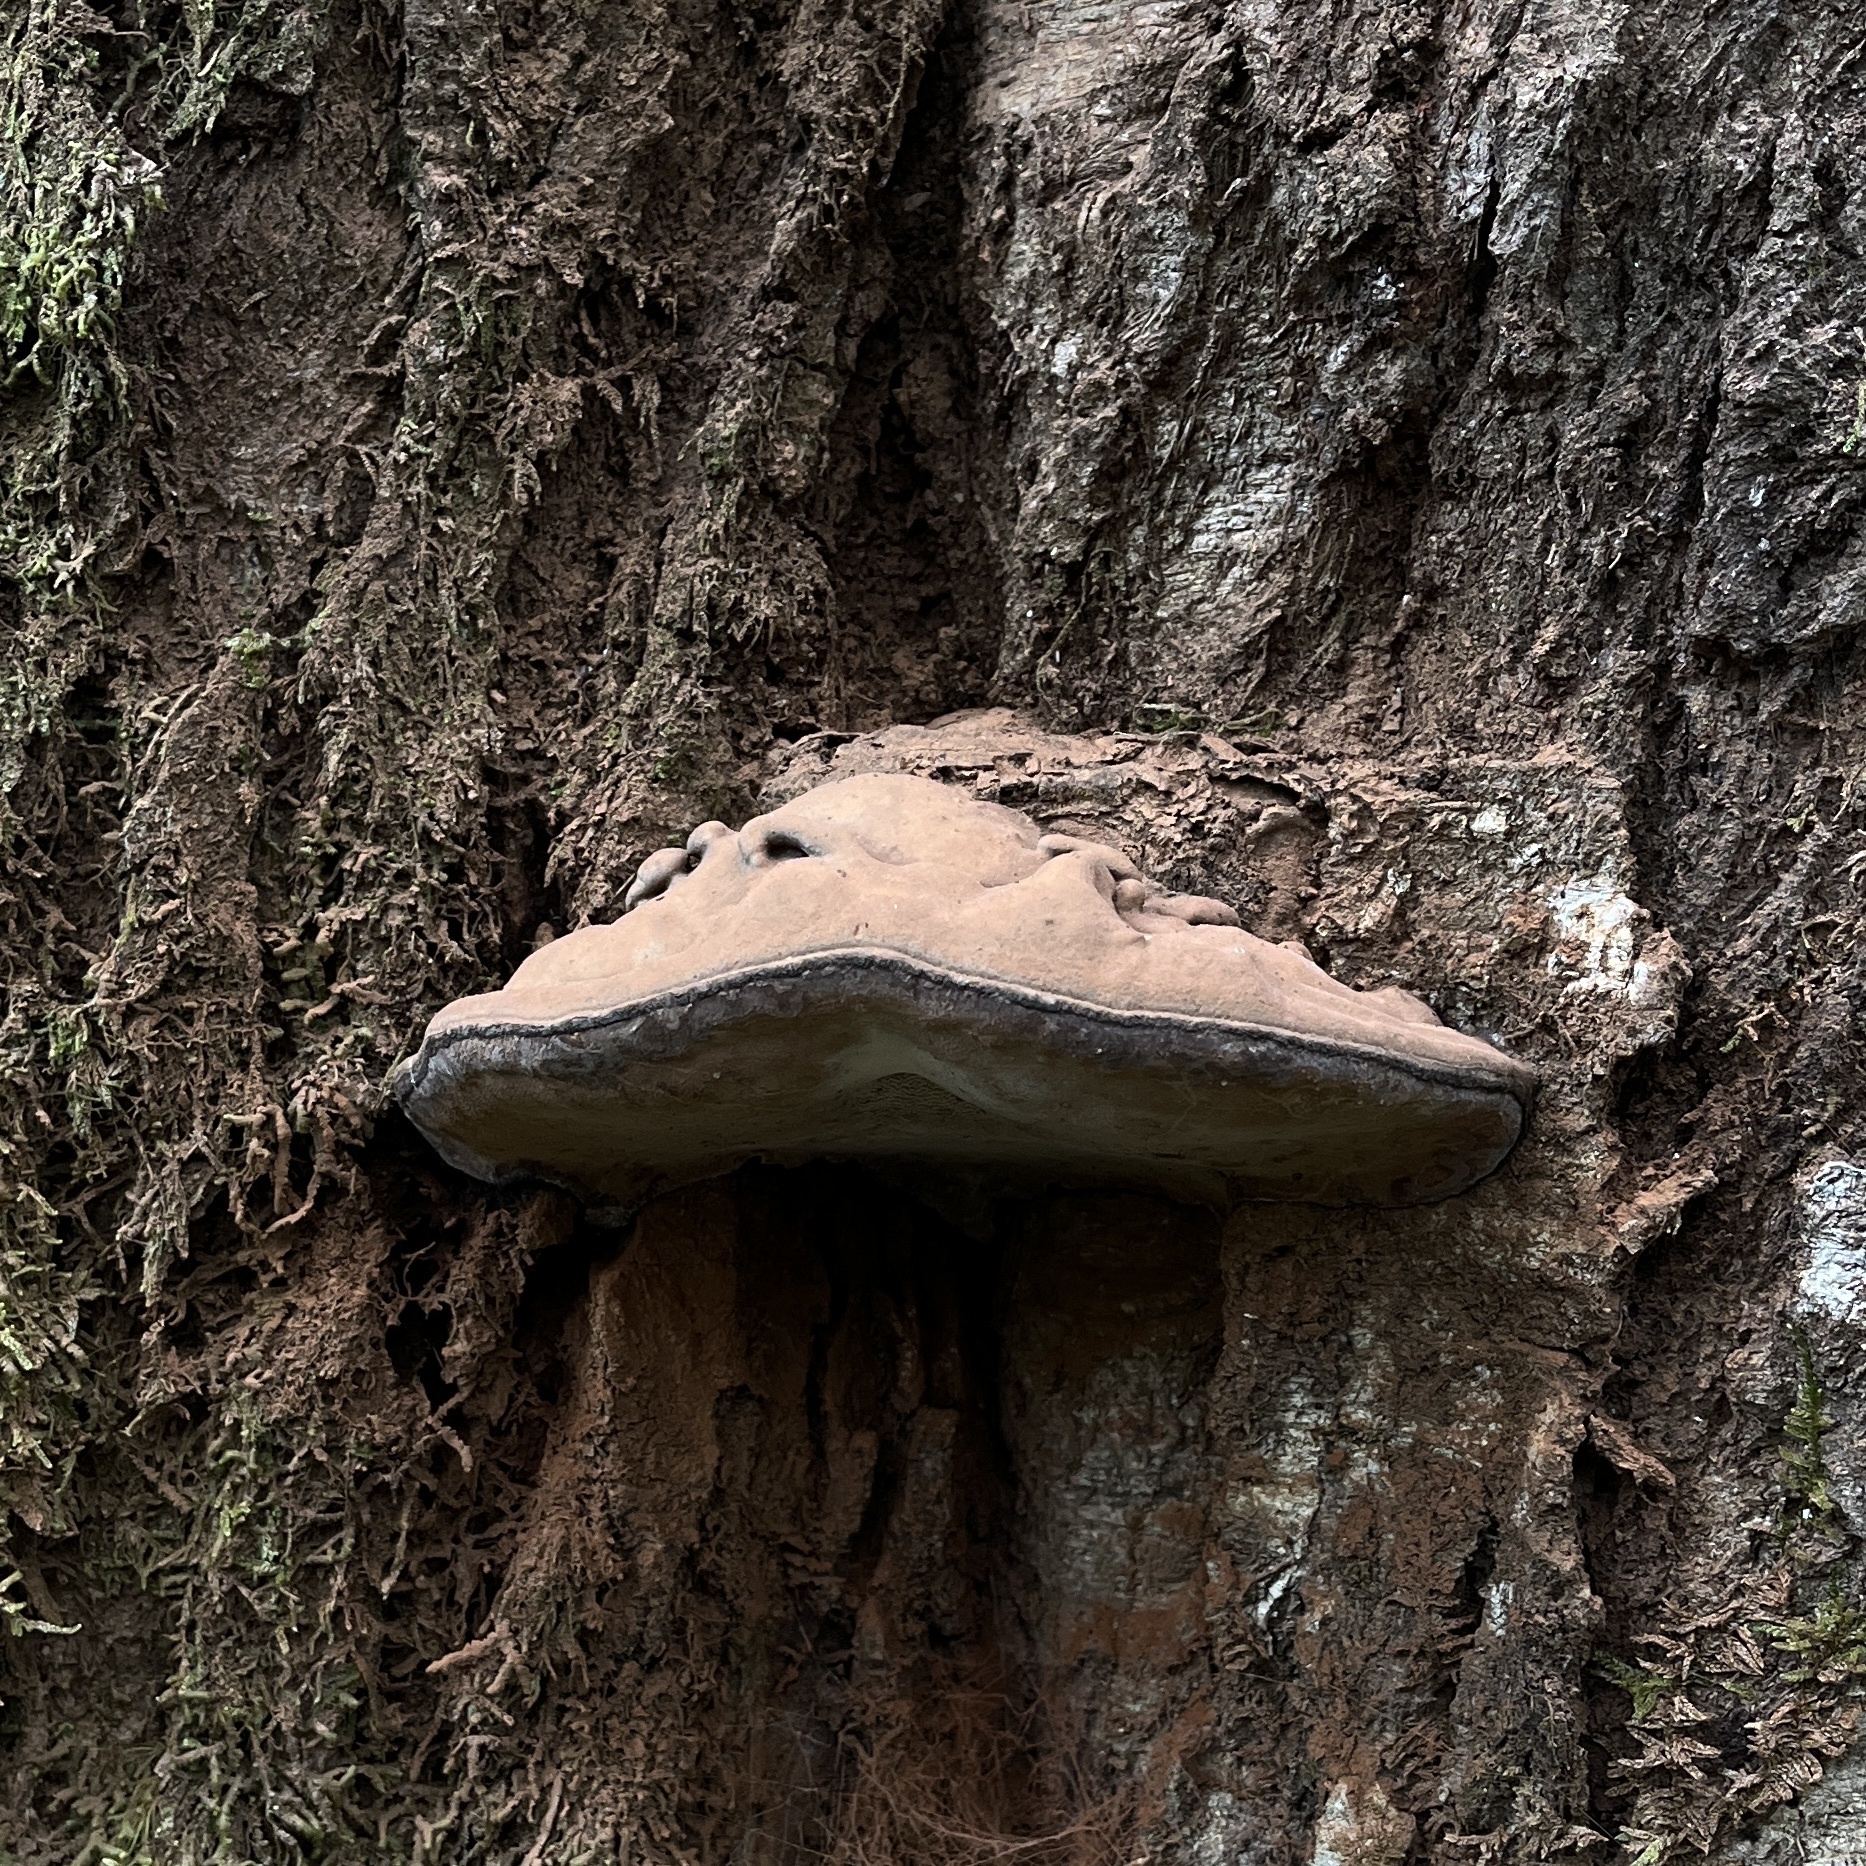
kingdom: Fungi
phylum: Basidiomycota
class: Agaricomycetes
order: Polyporales
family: Polyporaceae
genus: Ganoderma
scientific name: Ganoderma australe
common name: Southern bracket
